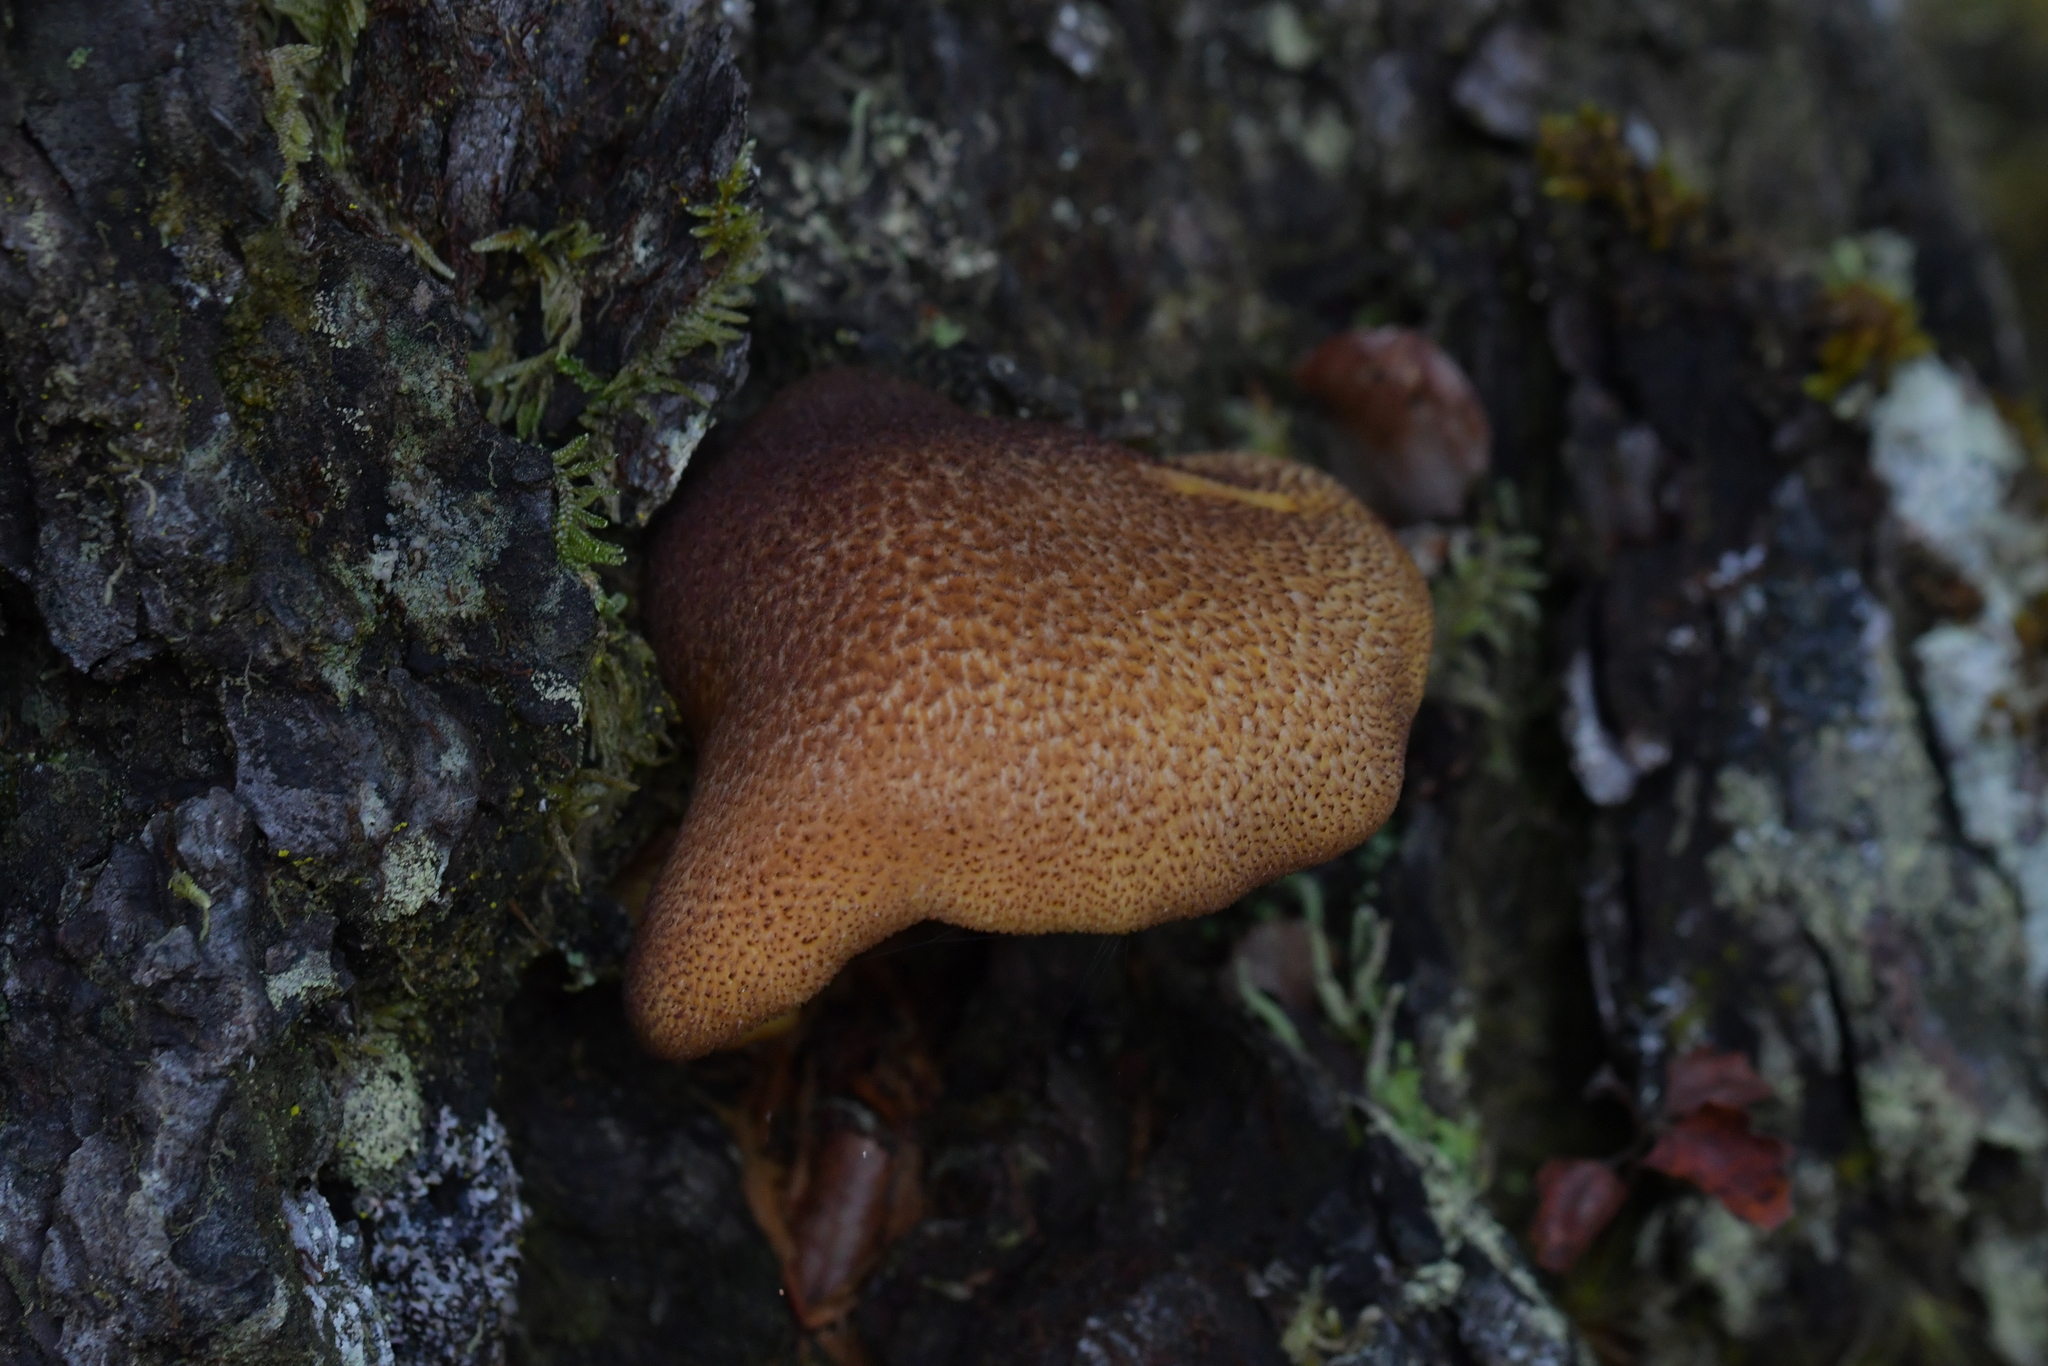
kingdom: Fungi
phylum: Basidiomycota
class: Agaricomycetes
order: Agaricales
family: Tricholomataceae
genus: Tricholomopsis
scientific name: Tricholomopsis scabra
